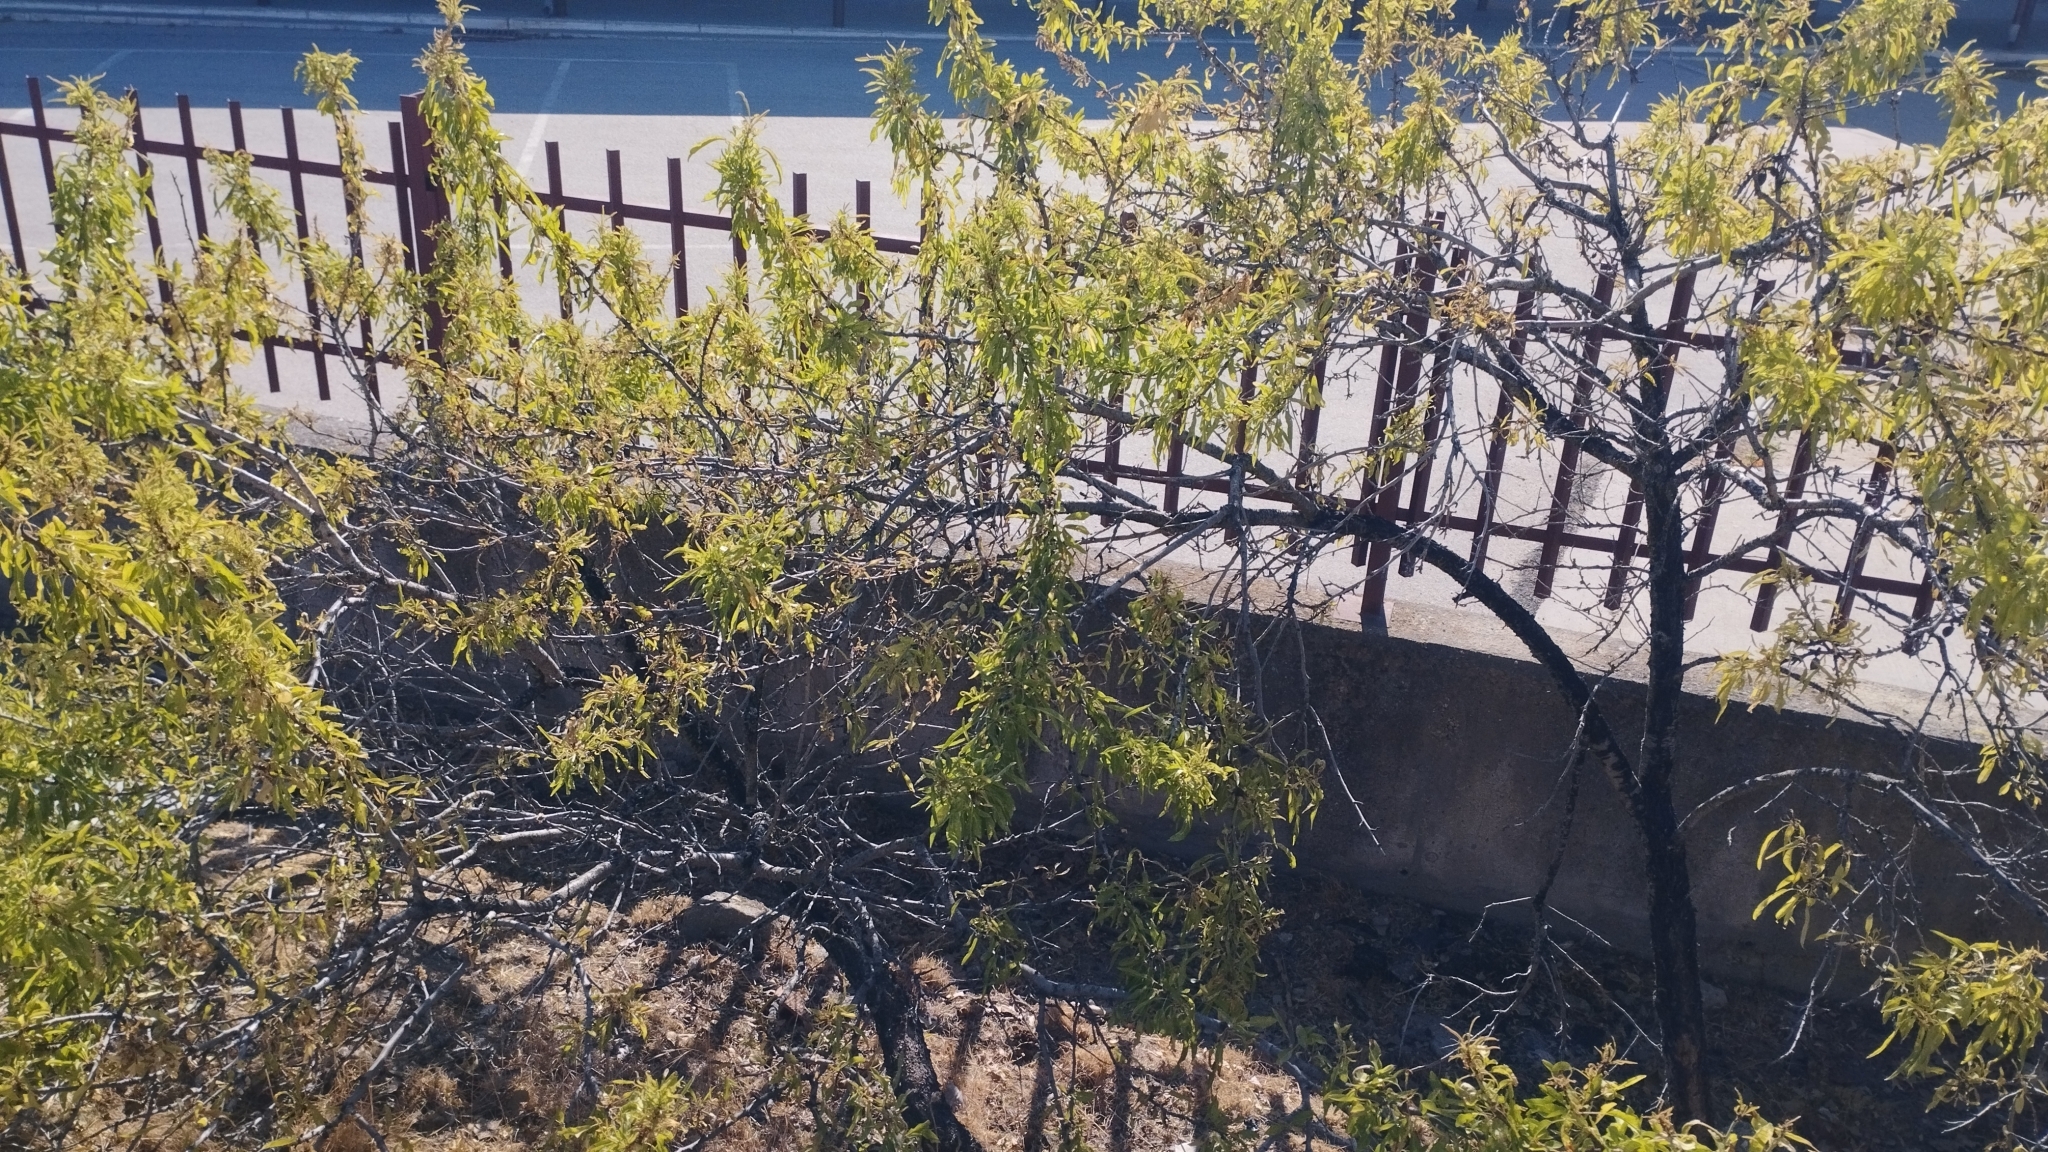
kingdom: Plantae
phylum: Tracheophyta
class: Magnoliopsida
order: Rosales
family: Rosaceae
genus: Prunus
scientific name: Prunus amygdalus
